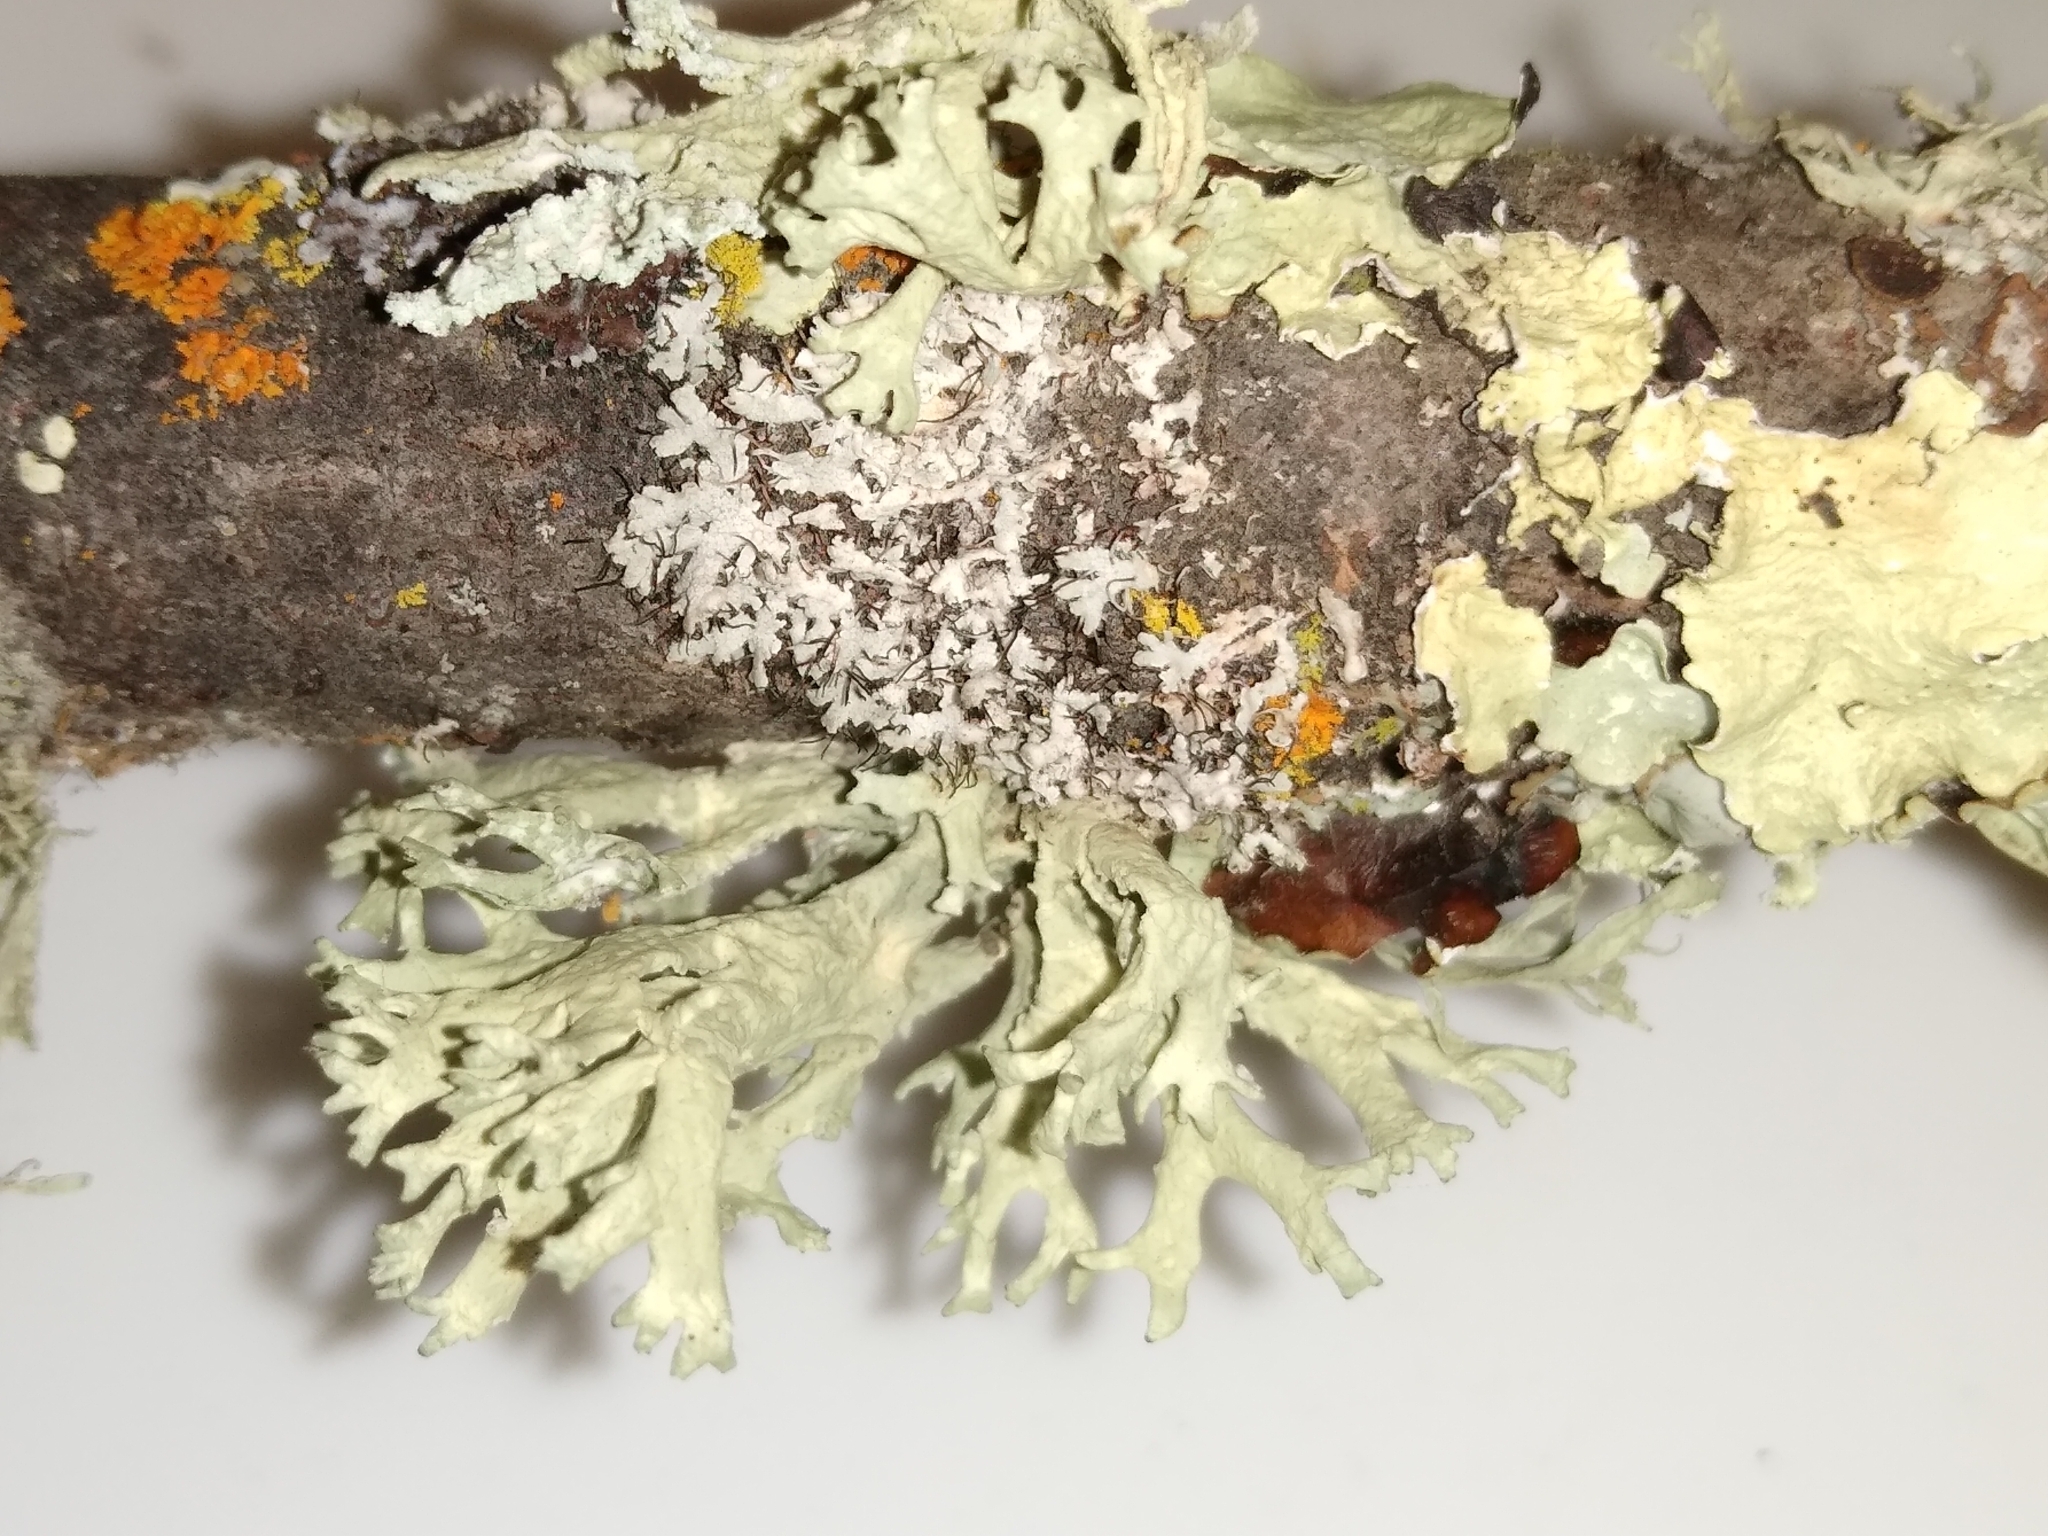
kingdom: Fungi
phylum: Ascomycota
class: Lecanoromycetes
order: Lecanorales
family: Parmeliaceae
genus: Evernia
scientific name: Evernia prunastri
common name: Oak moss
